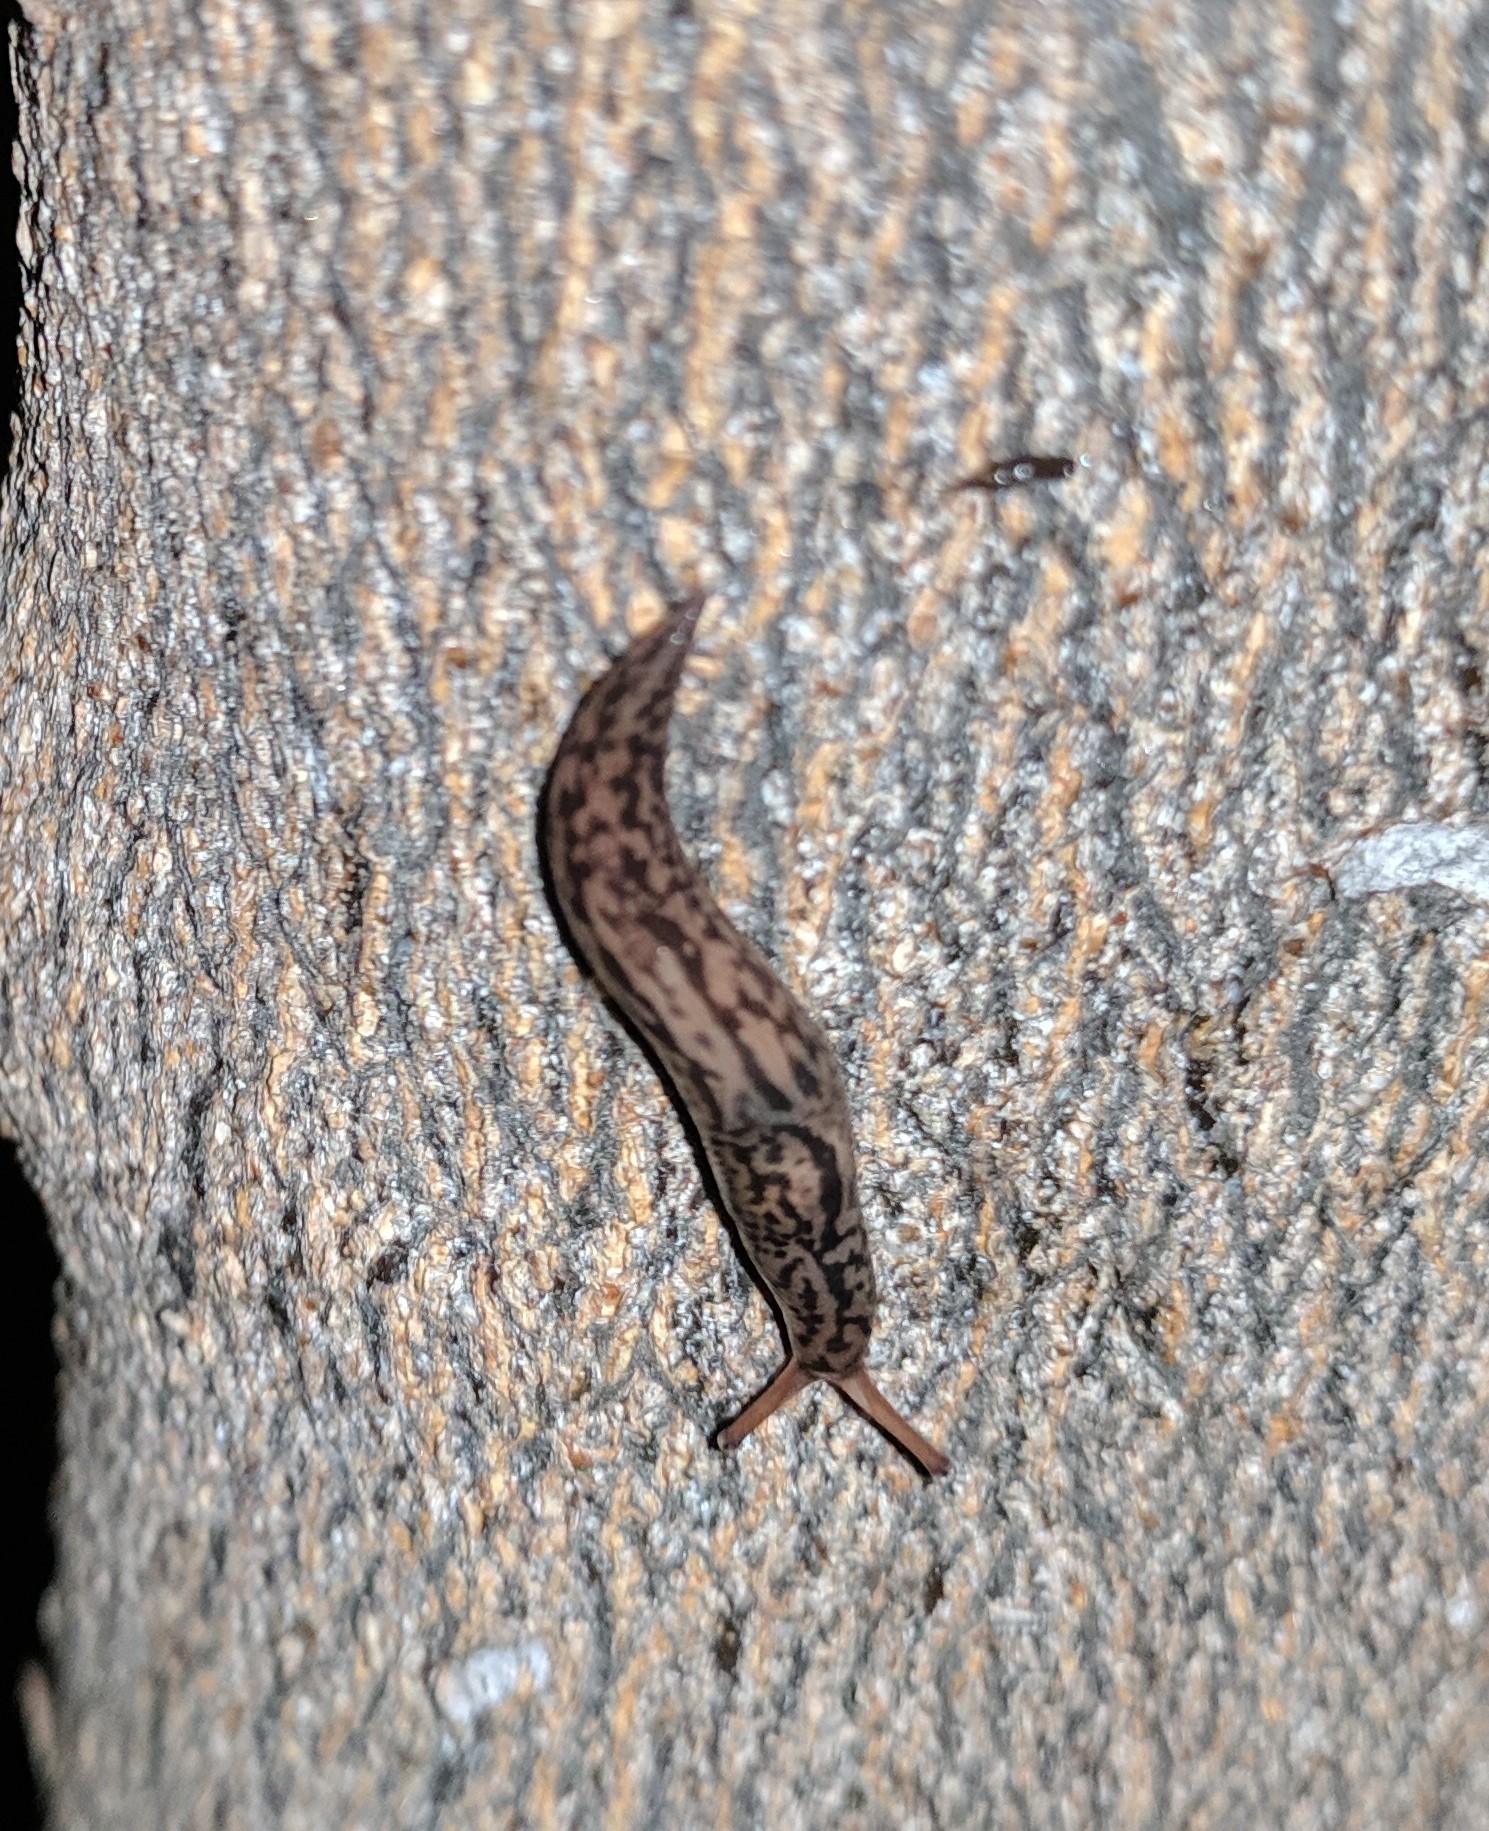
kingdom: Animalia
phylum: Mollusca
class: Gastropoda
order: Stylommatophora
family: Limacidae
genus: Ambigolimax
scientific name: Ambigolimax
